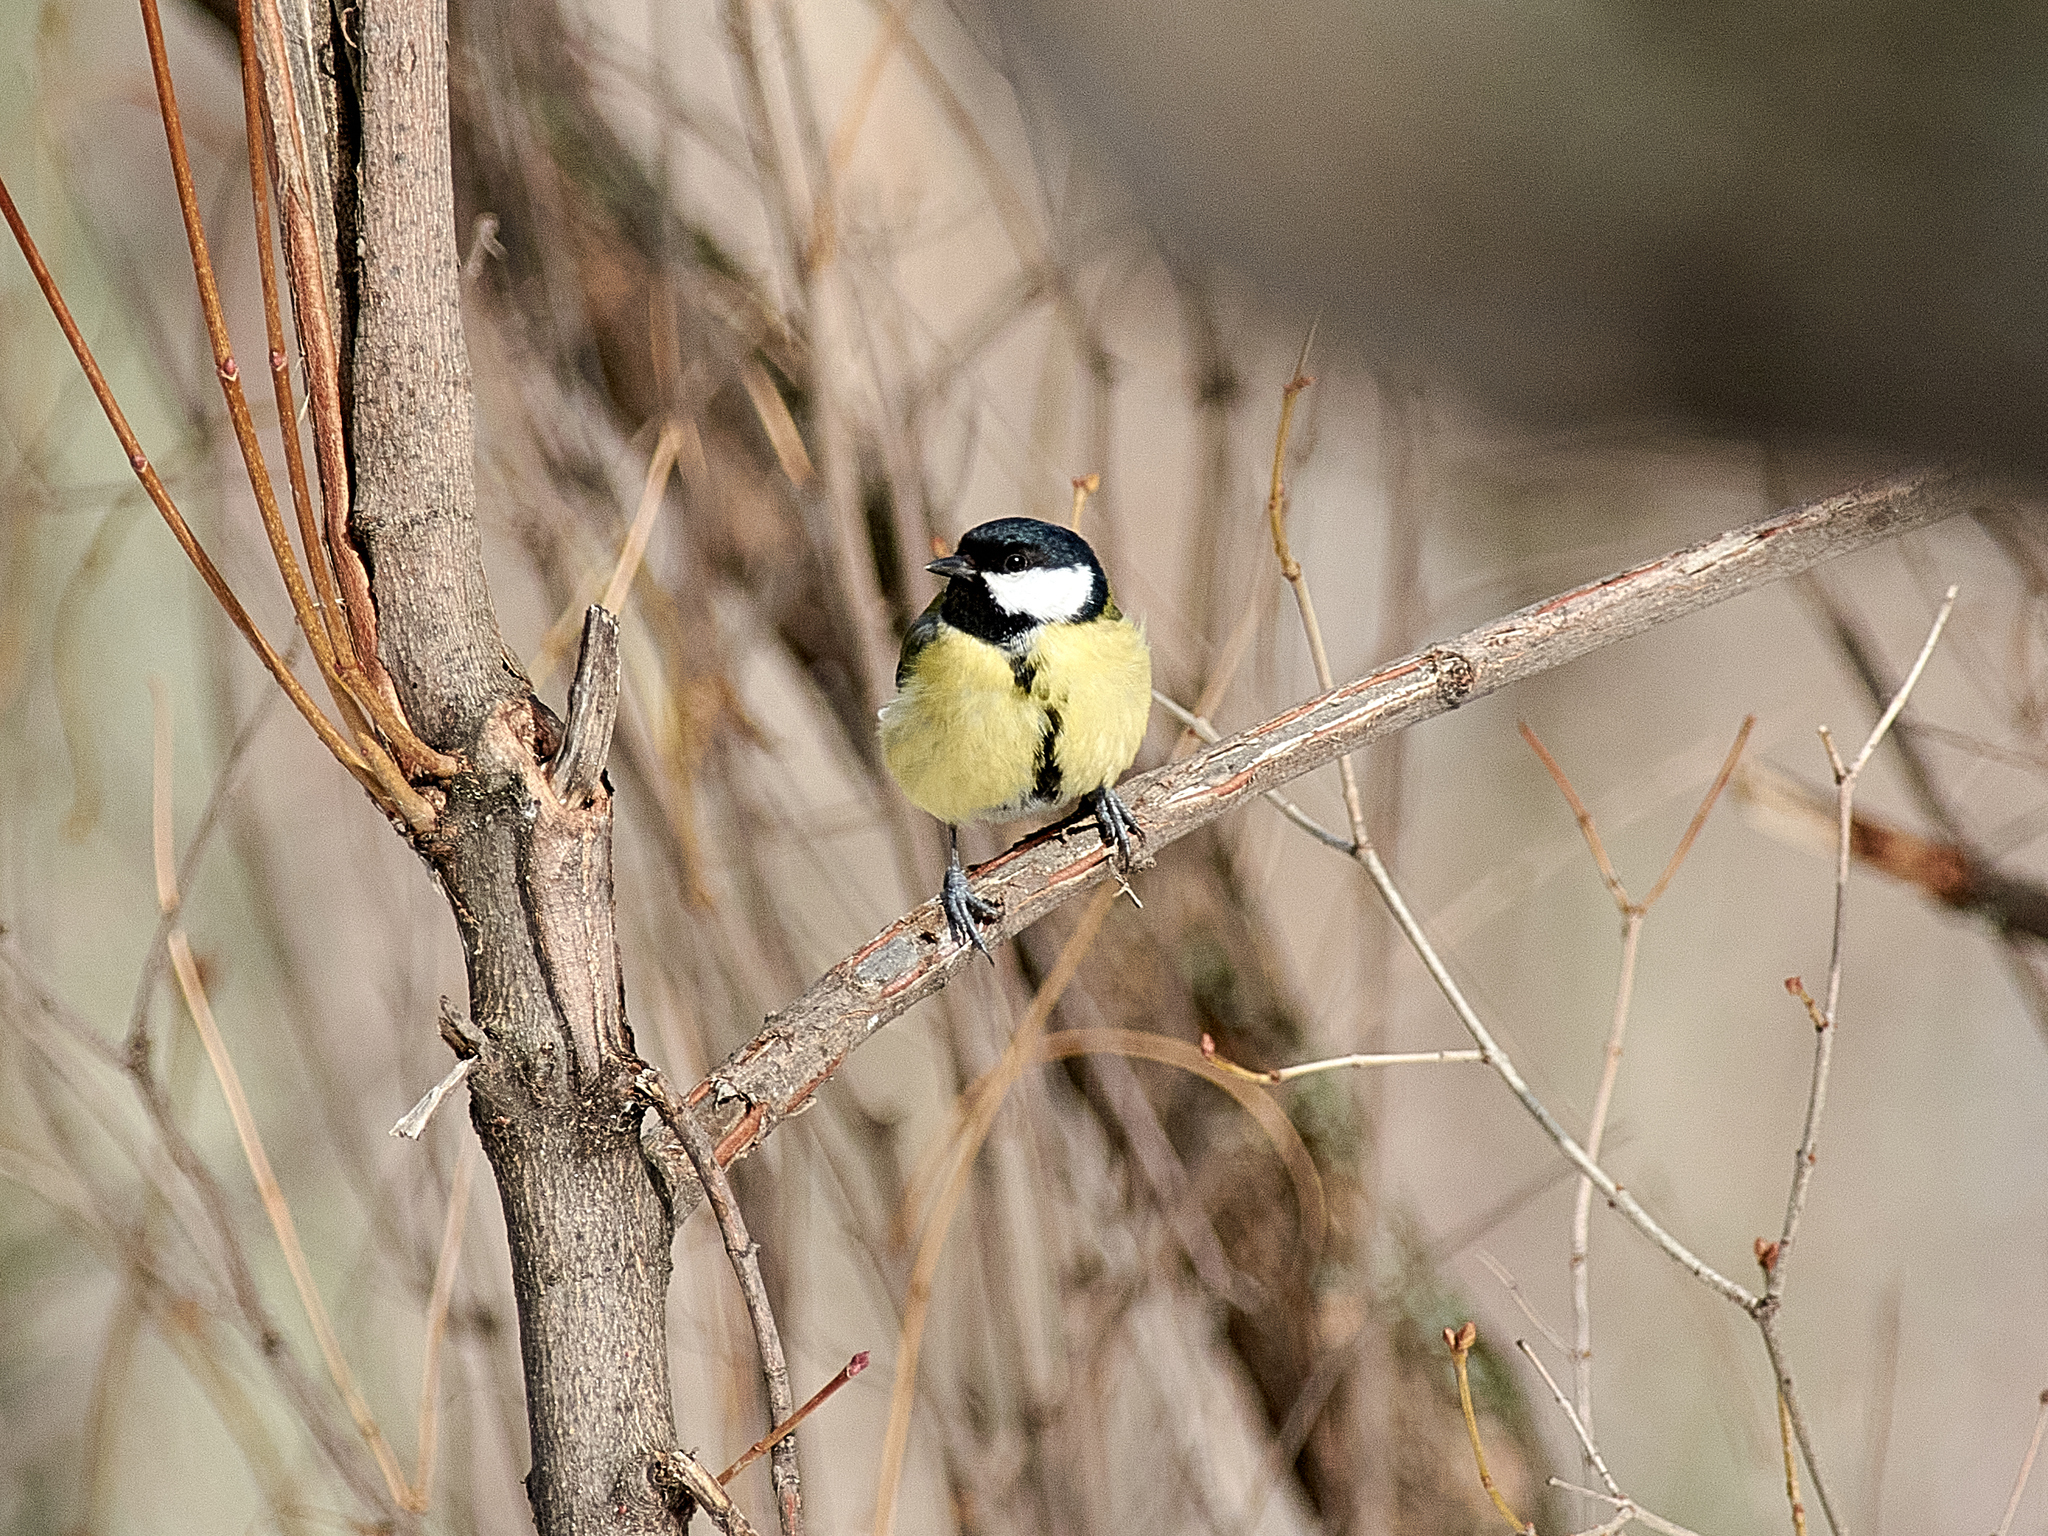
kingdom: Animalia
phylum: Chordata
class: Aves
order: Passeriformes
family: Paridae
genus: Parus
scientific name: Parus major
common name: Great tit
